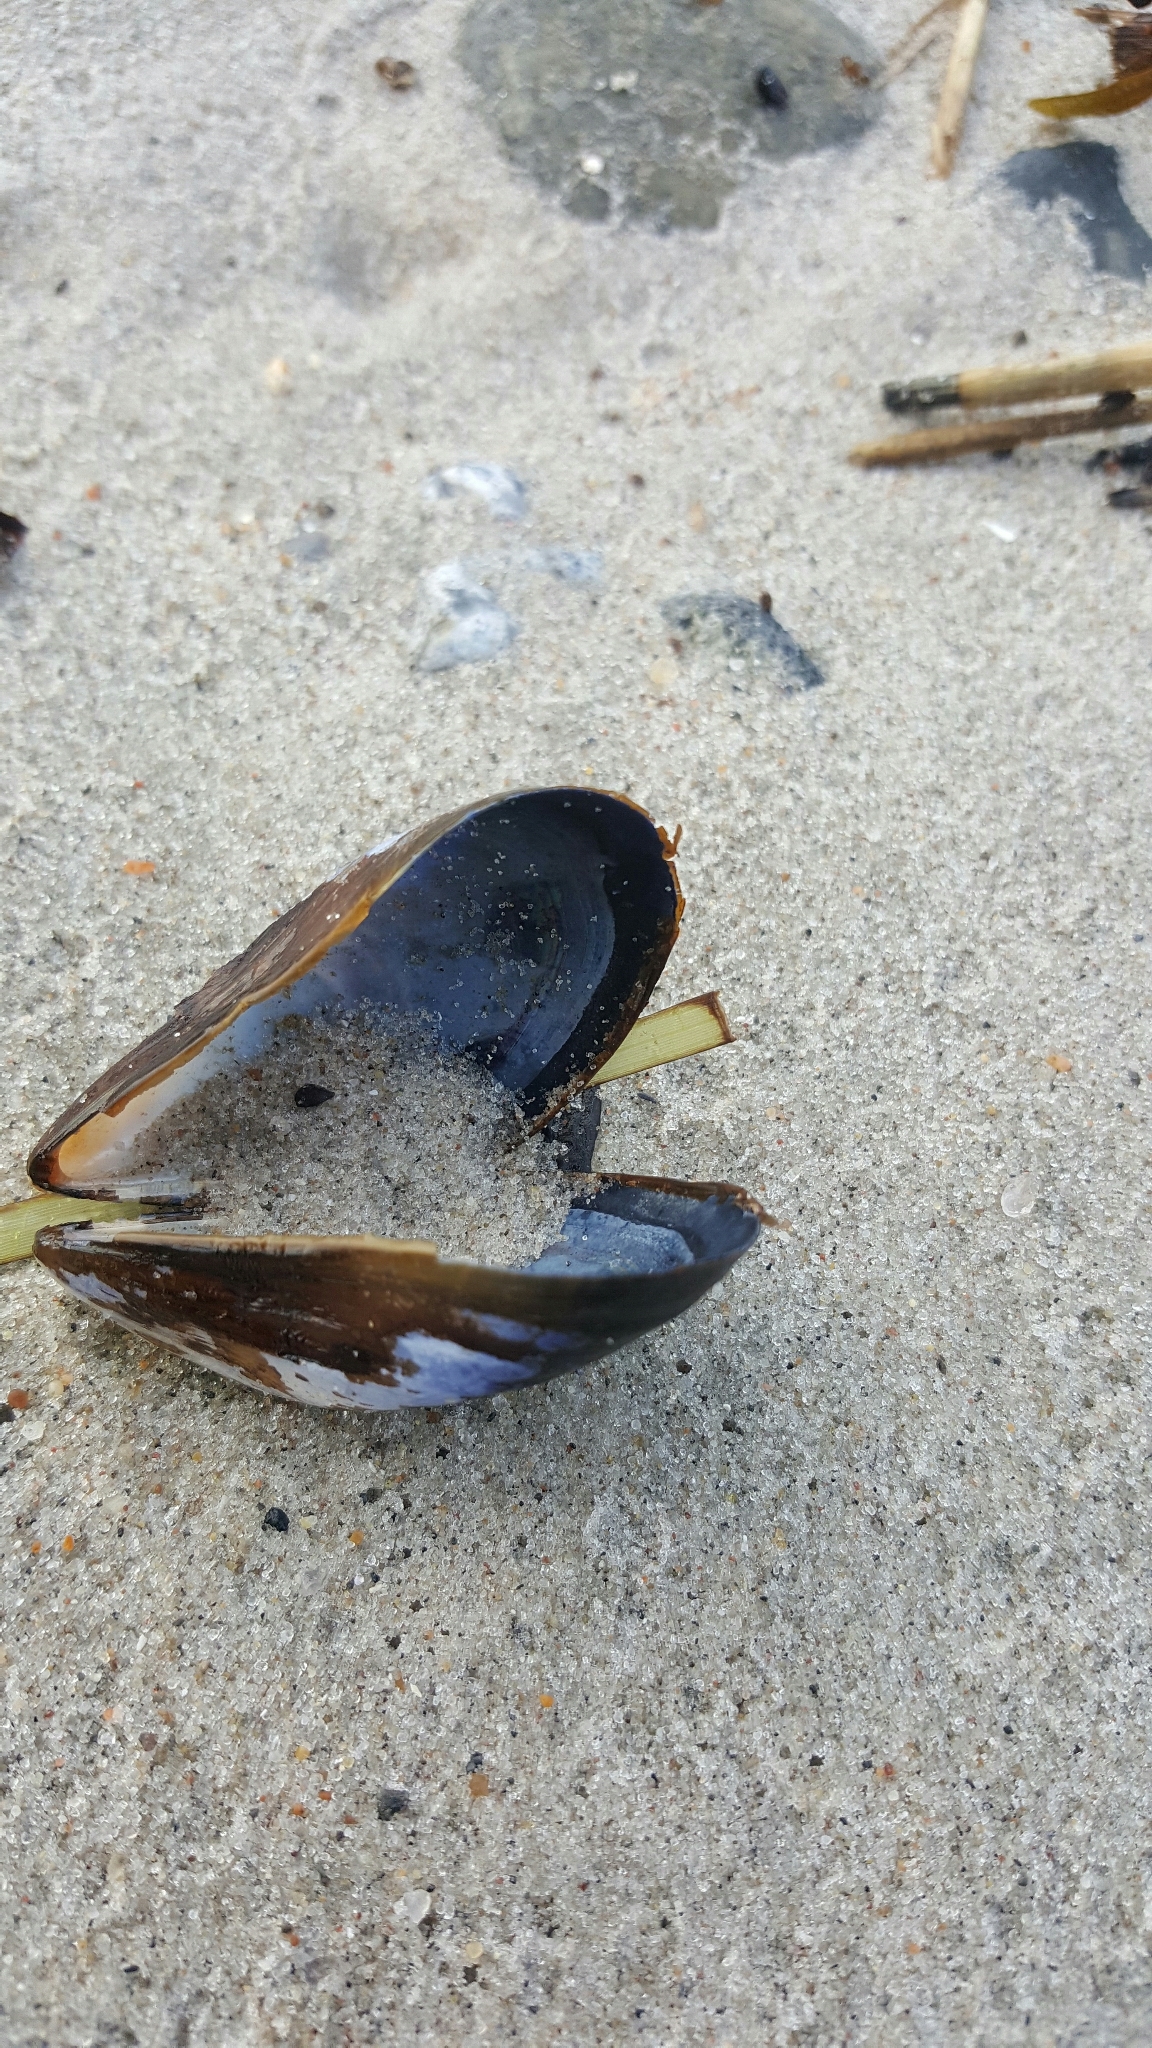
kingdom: Animalia
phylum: Mollusca
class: Bivalvia
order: Mytilida
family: Mytilidae
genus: Mytilus
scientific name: Mytilus edulis
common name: Blue mussel
